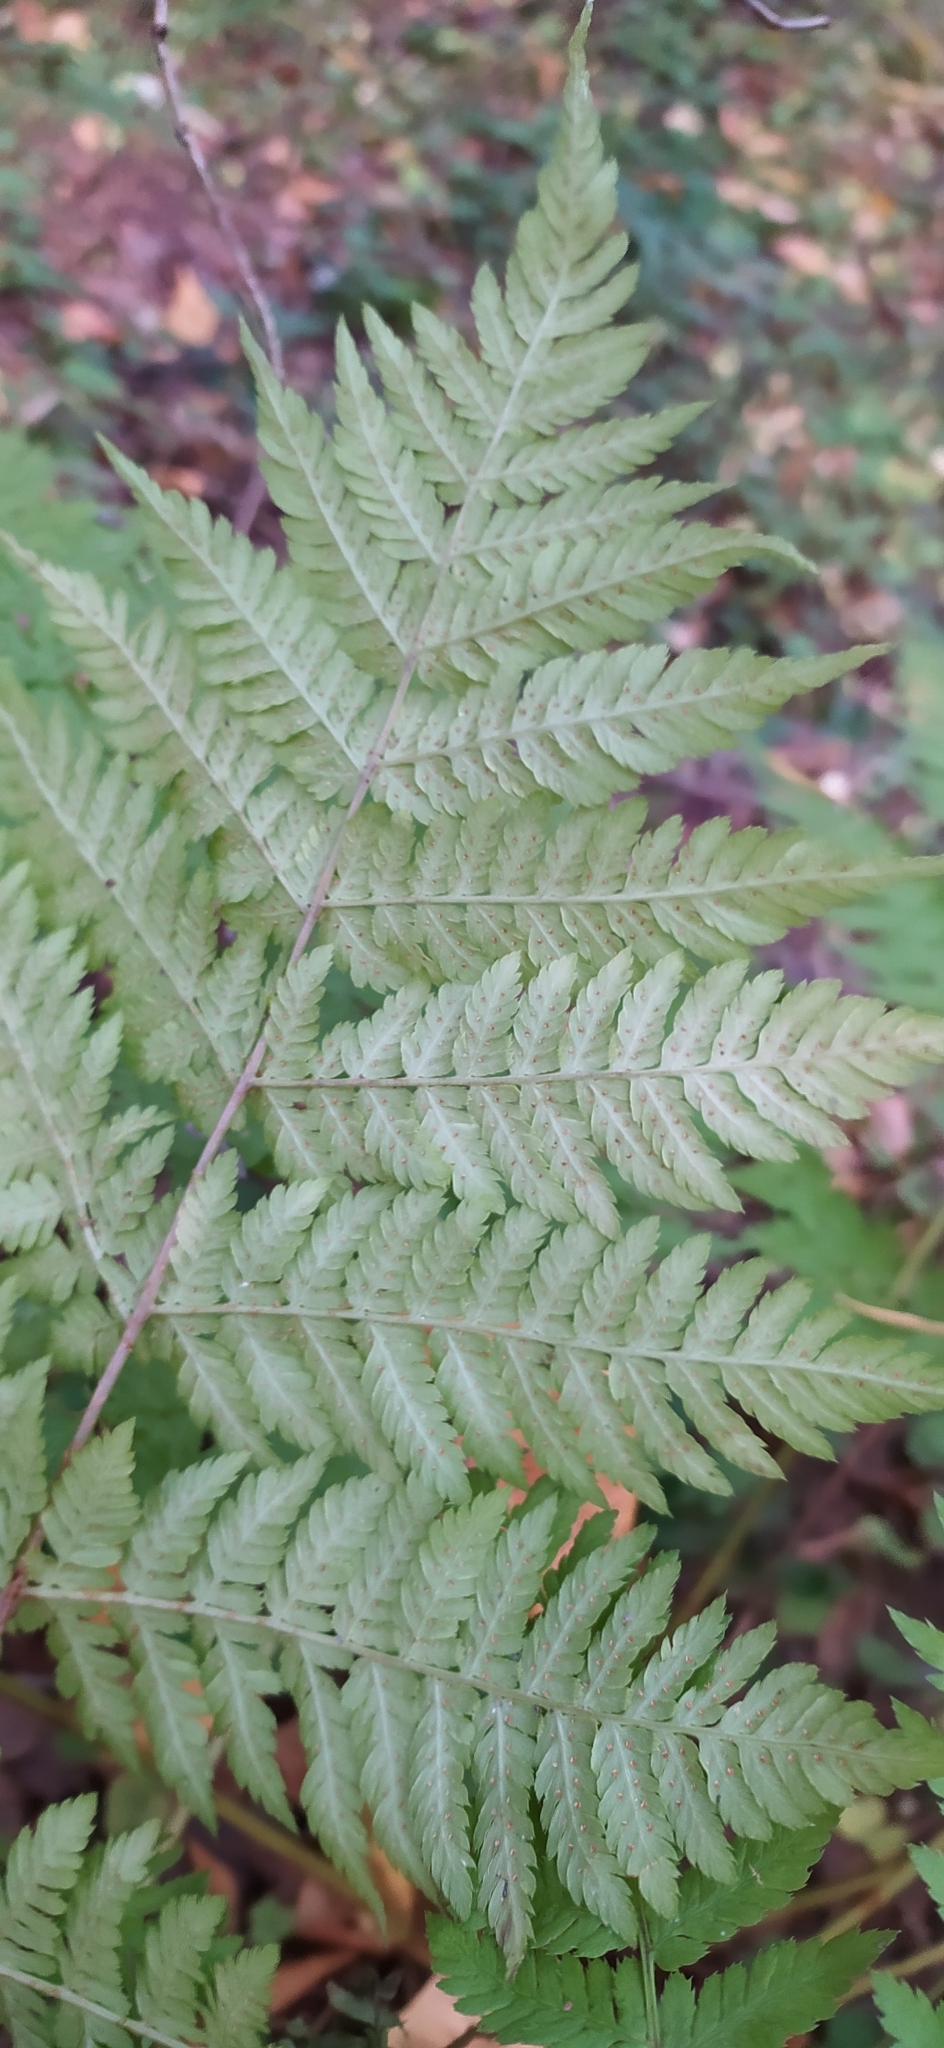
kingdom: Plantae
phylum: Tracheophyta
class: Polypodiopsida
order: Polypodiales
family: Dryopteridaceae
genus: Dryopteris
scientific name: Dryopteris expansa
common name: Northern buckler fern
